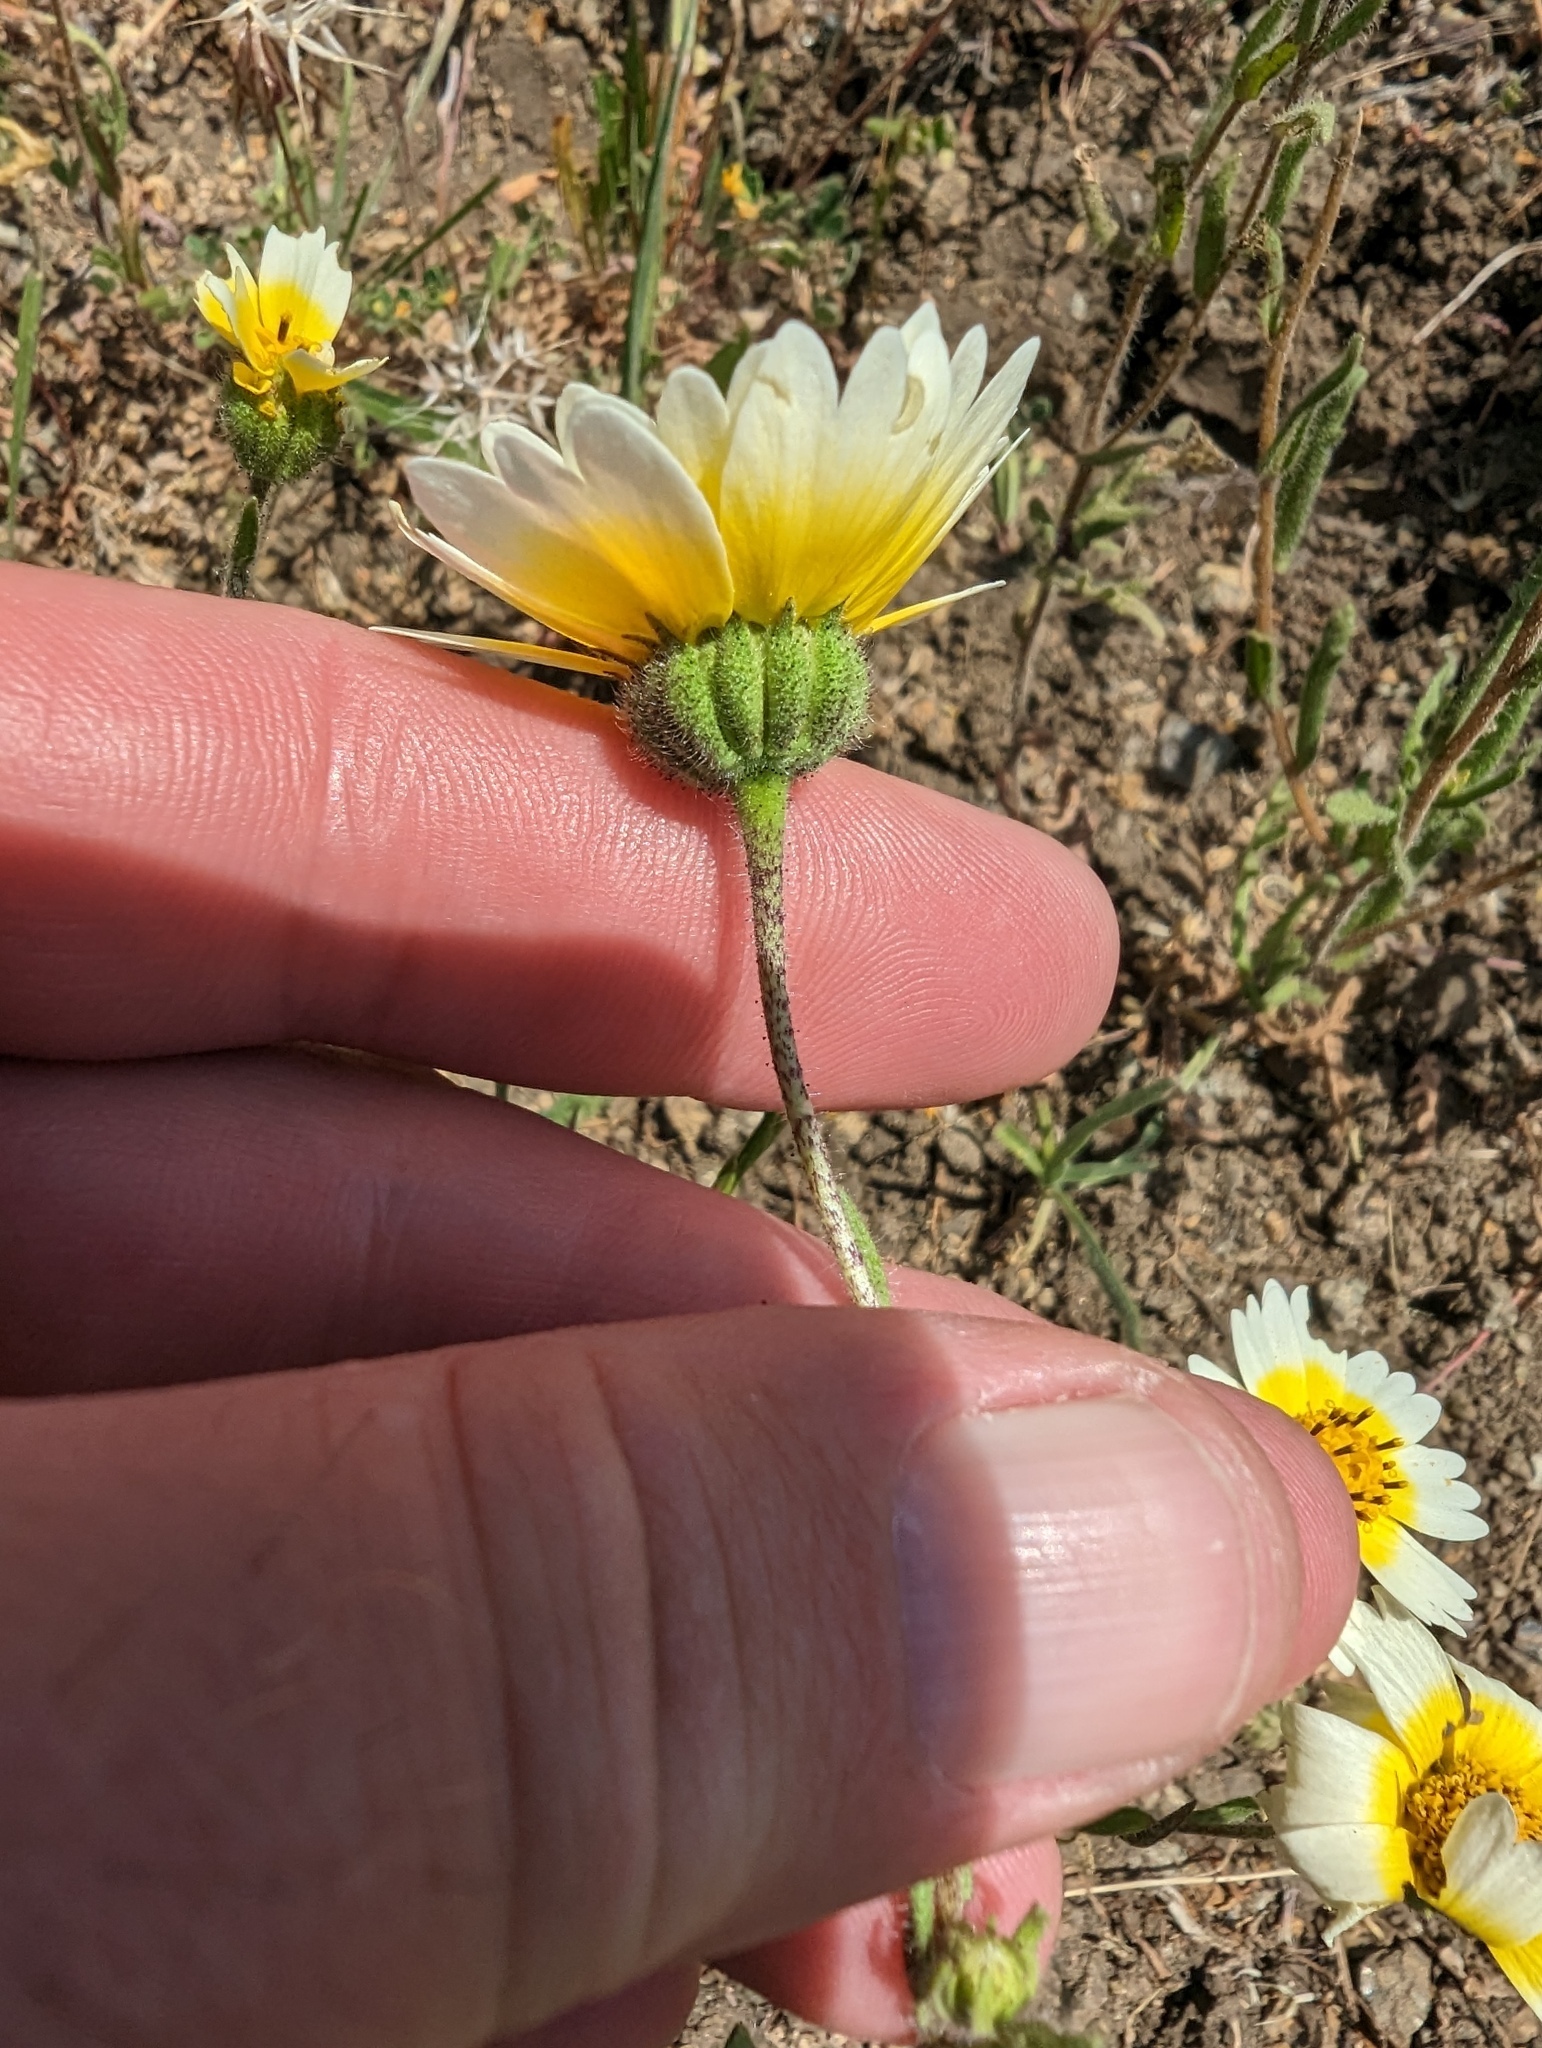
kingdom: Plantae
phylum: Tracheophyta
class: Magnoliopsida
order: Asterales
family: Asteraceae
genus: Layia
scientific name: Layia gaillardioides
